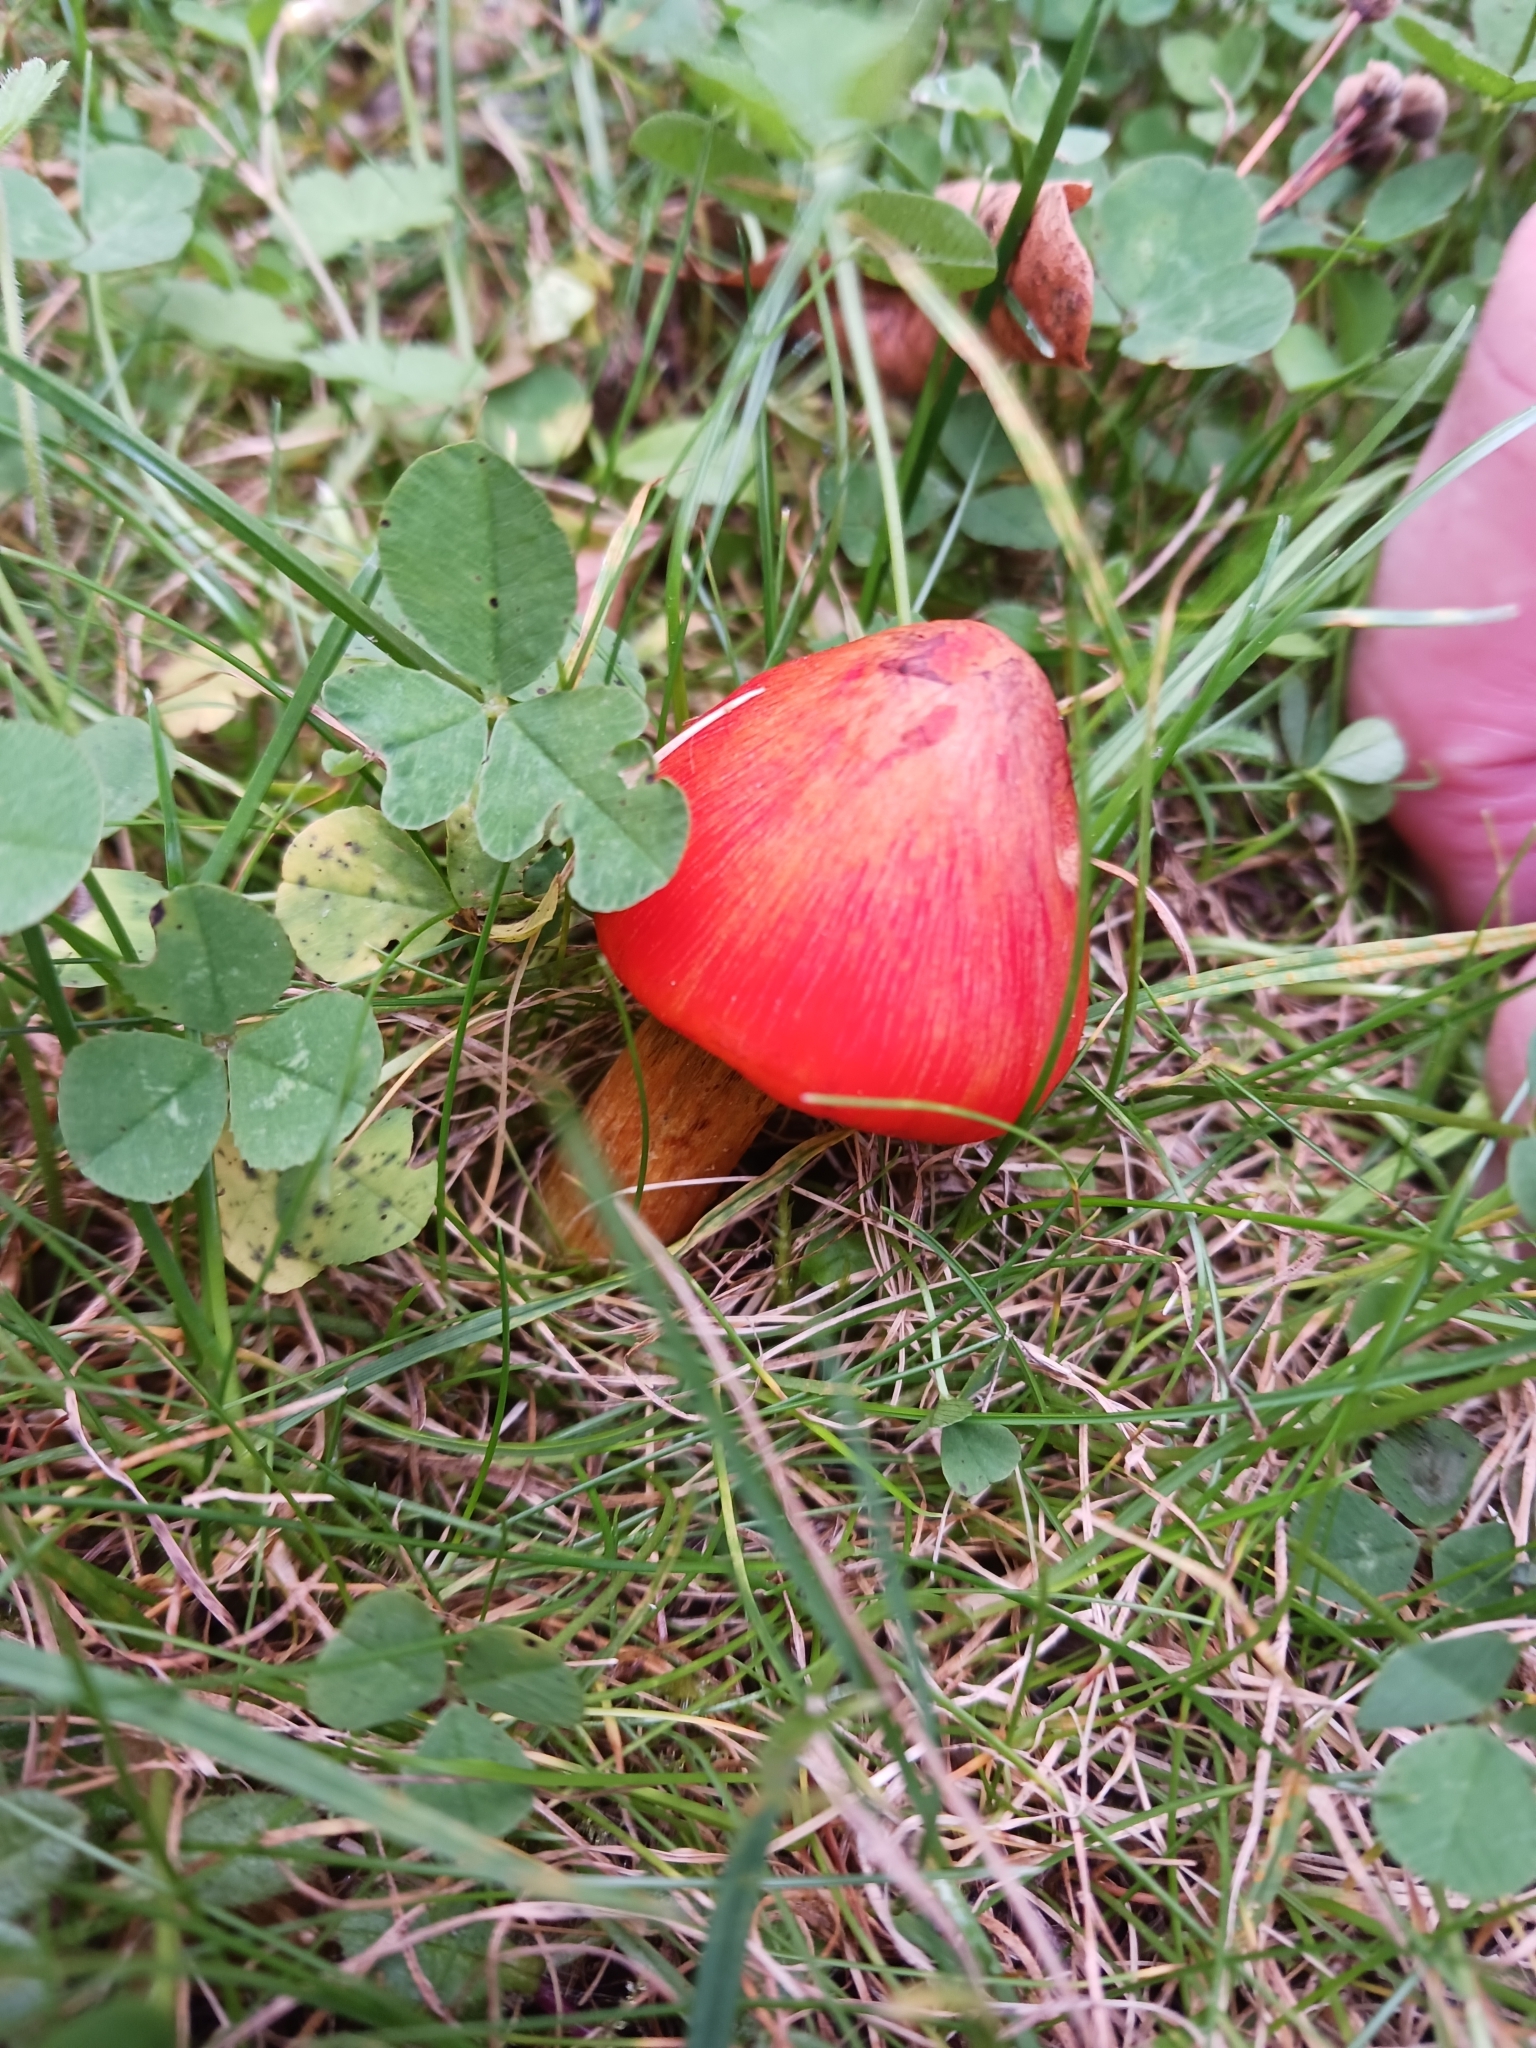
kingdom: Fungi
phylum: Basidiomycota
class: Agaricomycetes
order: Agaricales
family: Hygrophoraceae
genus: Hygrocybe
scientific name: Hygrocybe
